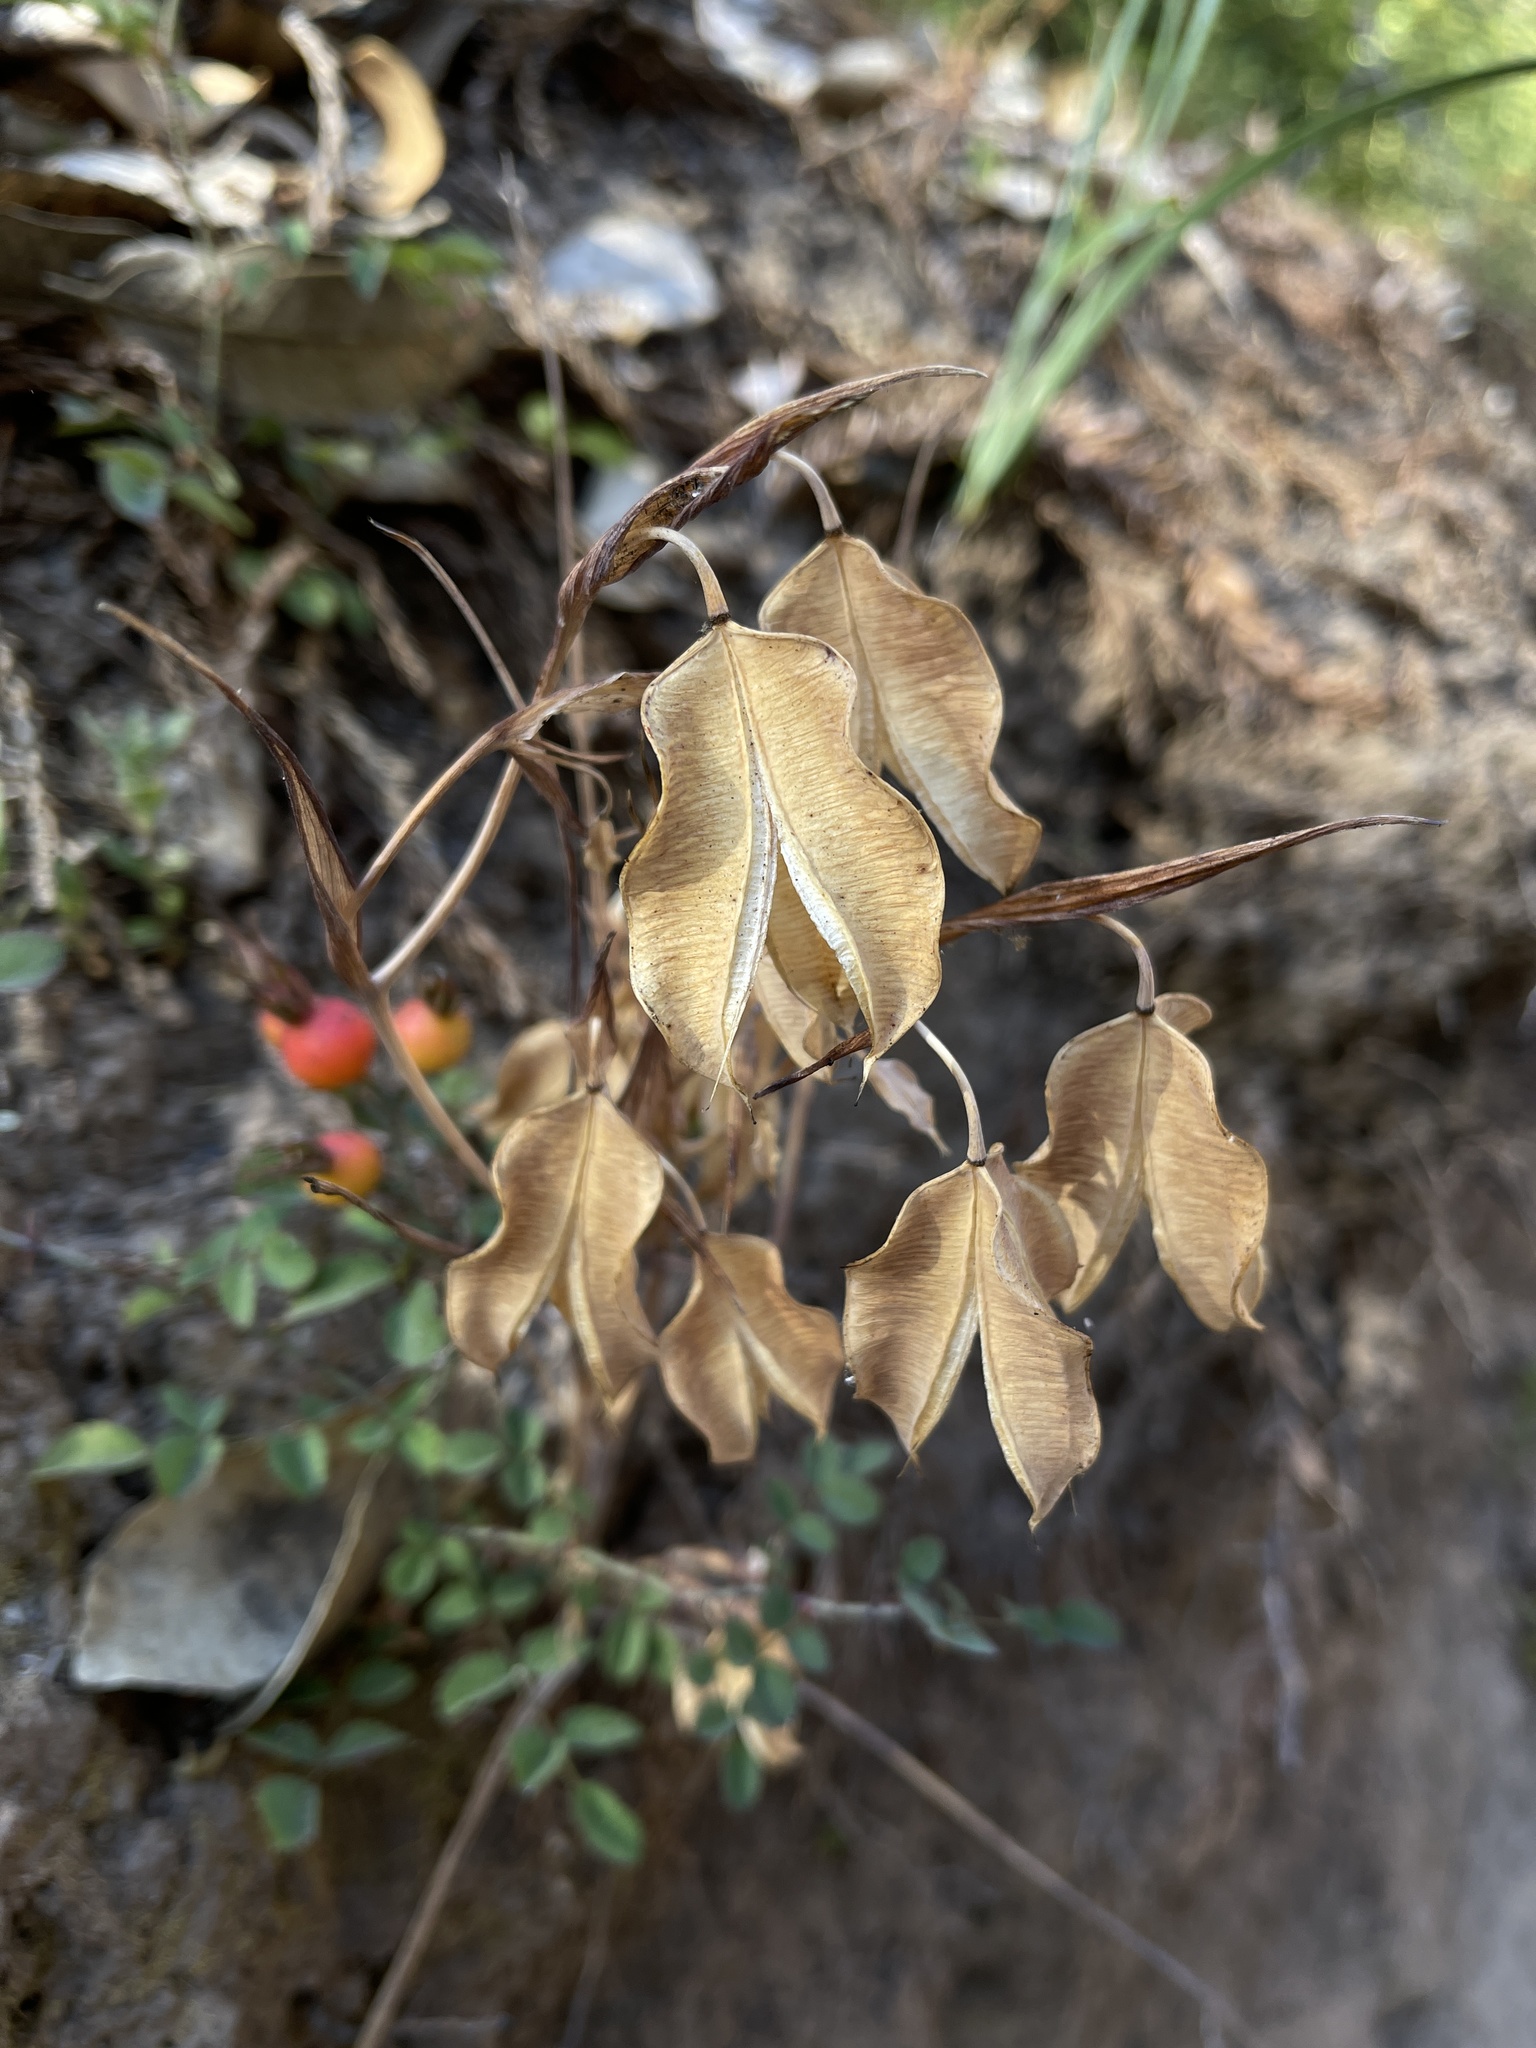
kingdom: Plantae
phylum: Tracheophyta
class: Liliopsida
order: Liliales
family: Liliaceae
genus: Calochortus
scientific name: Calochortus albus
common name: Fairy-lantern
